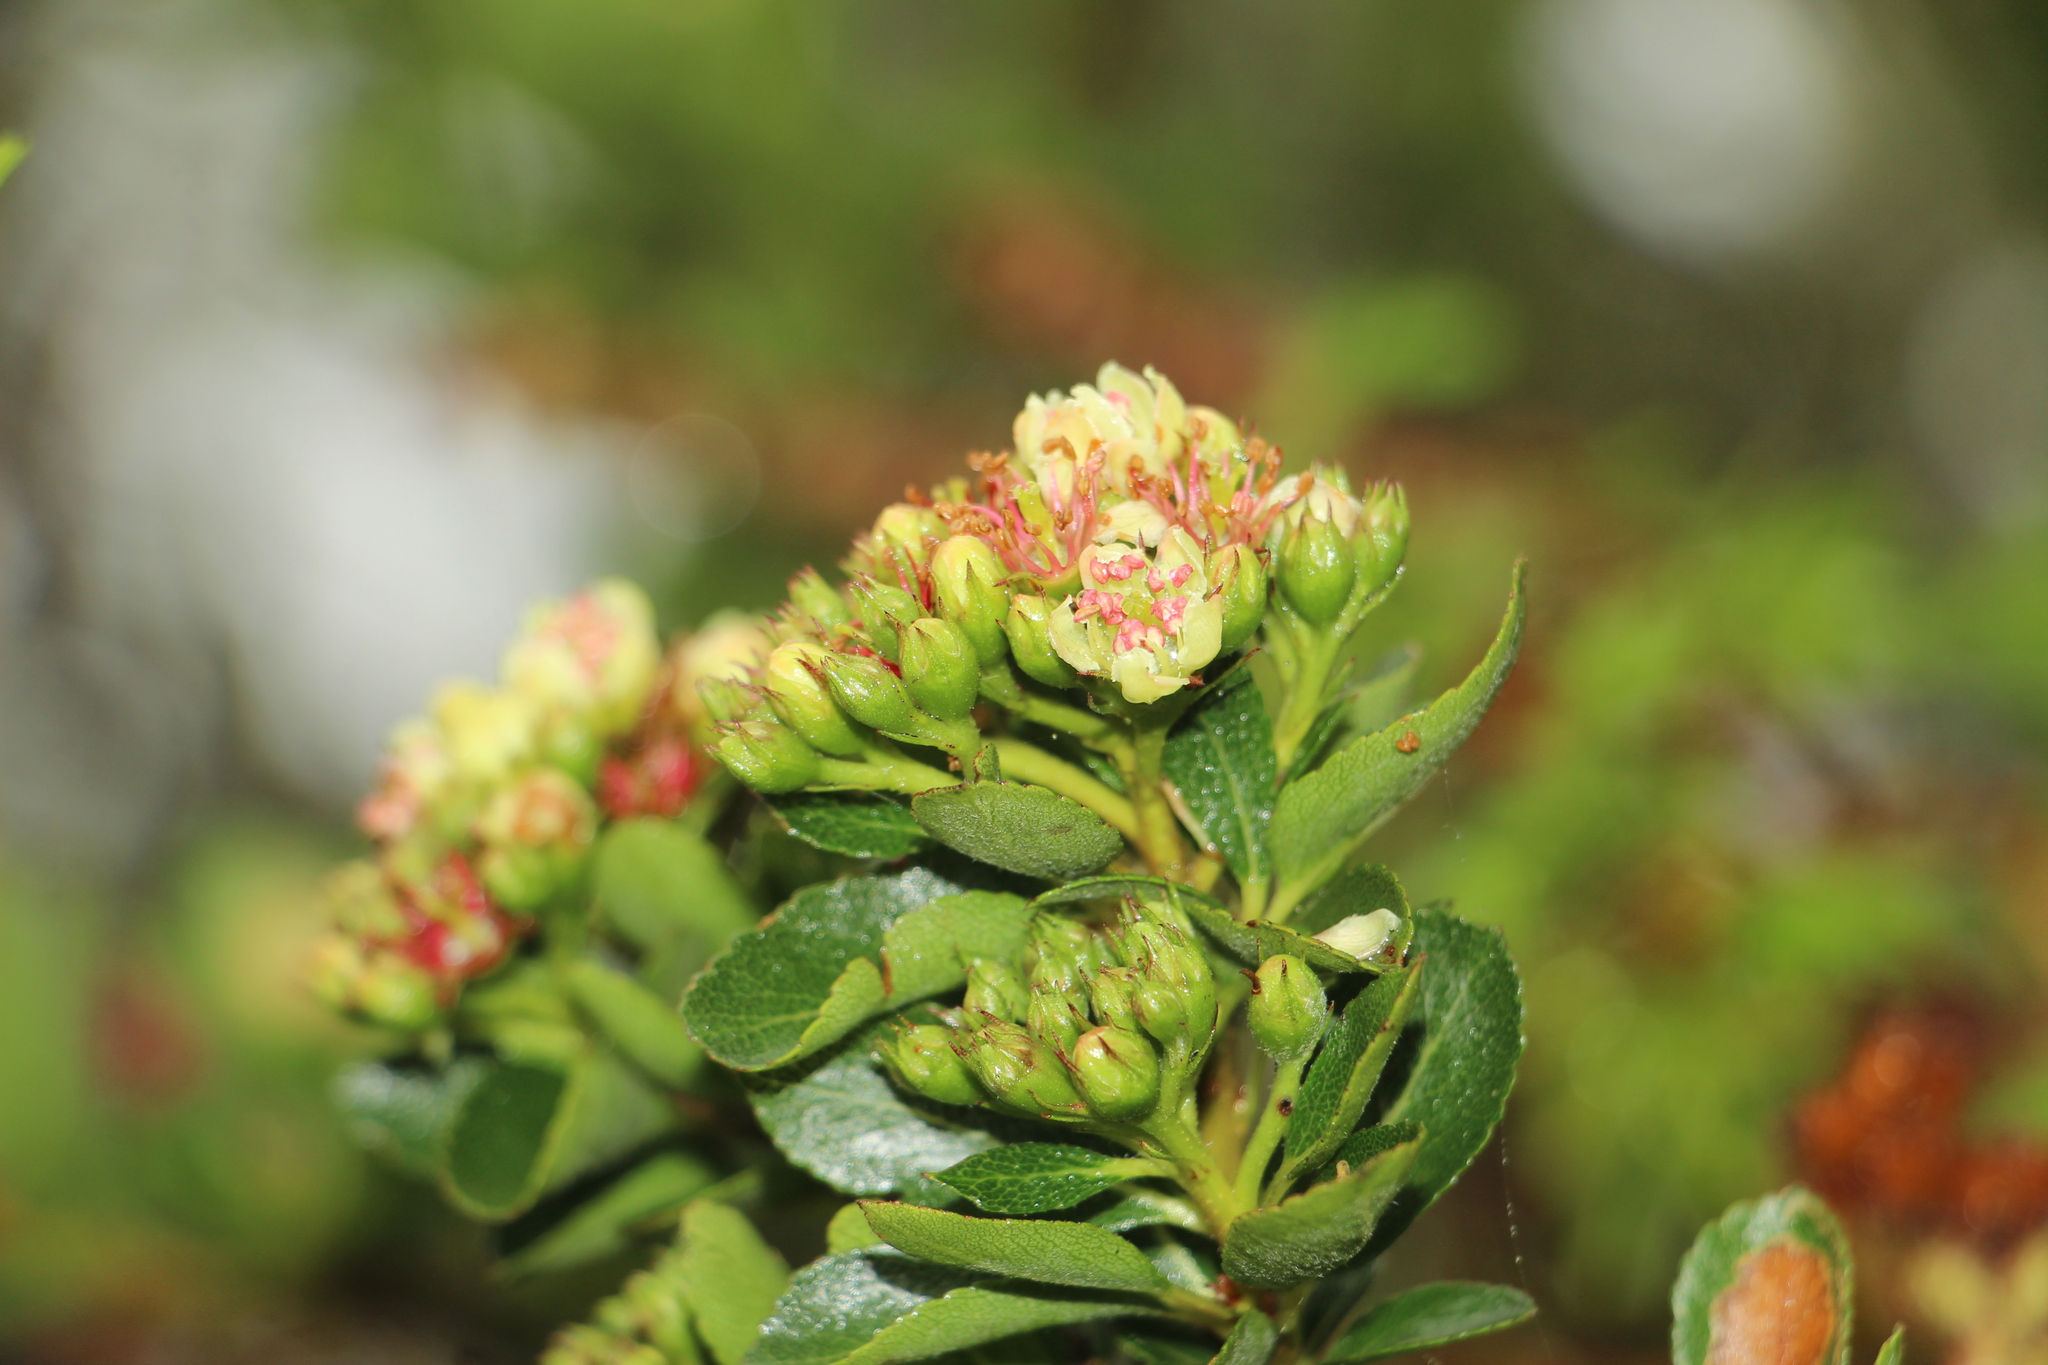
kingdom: Plantae
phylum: Tracheophyta
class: Magnoliopsida
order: Rosales
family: Rosaceae
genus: Hesperomeles
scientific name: Hesperomeles goudotiana
